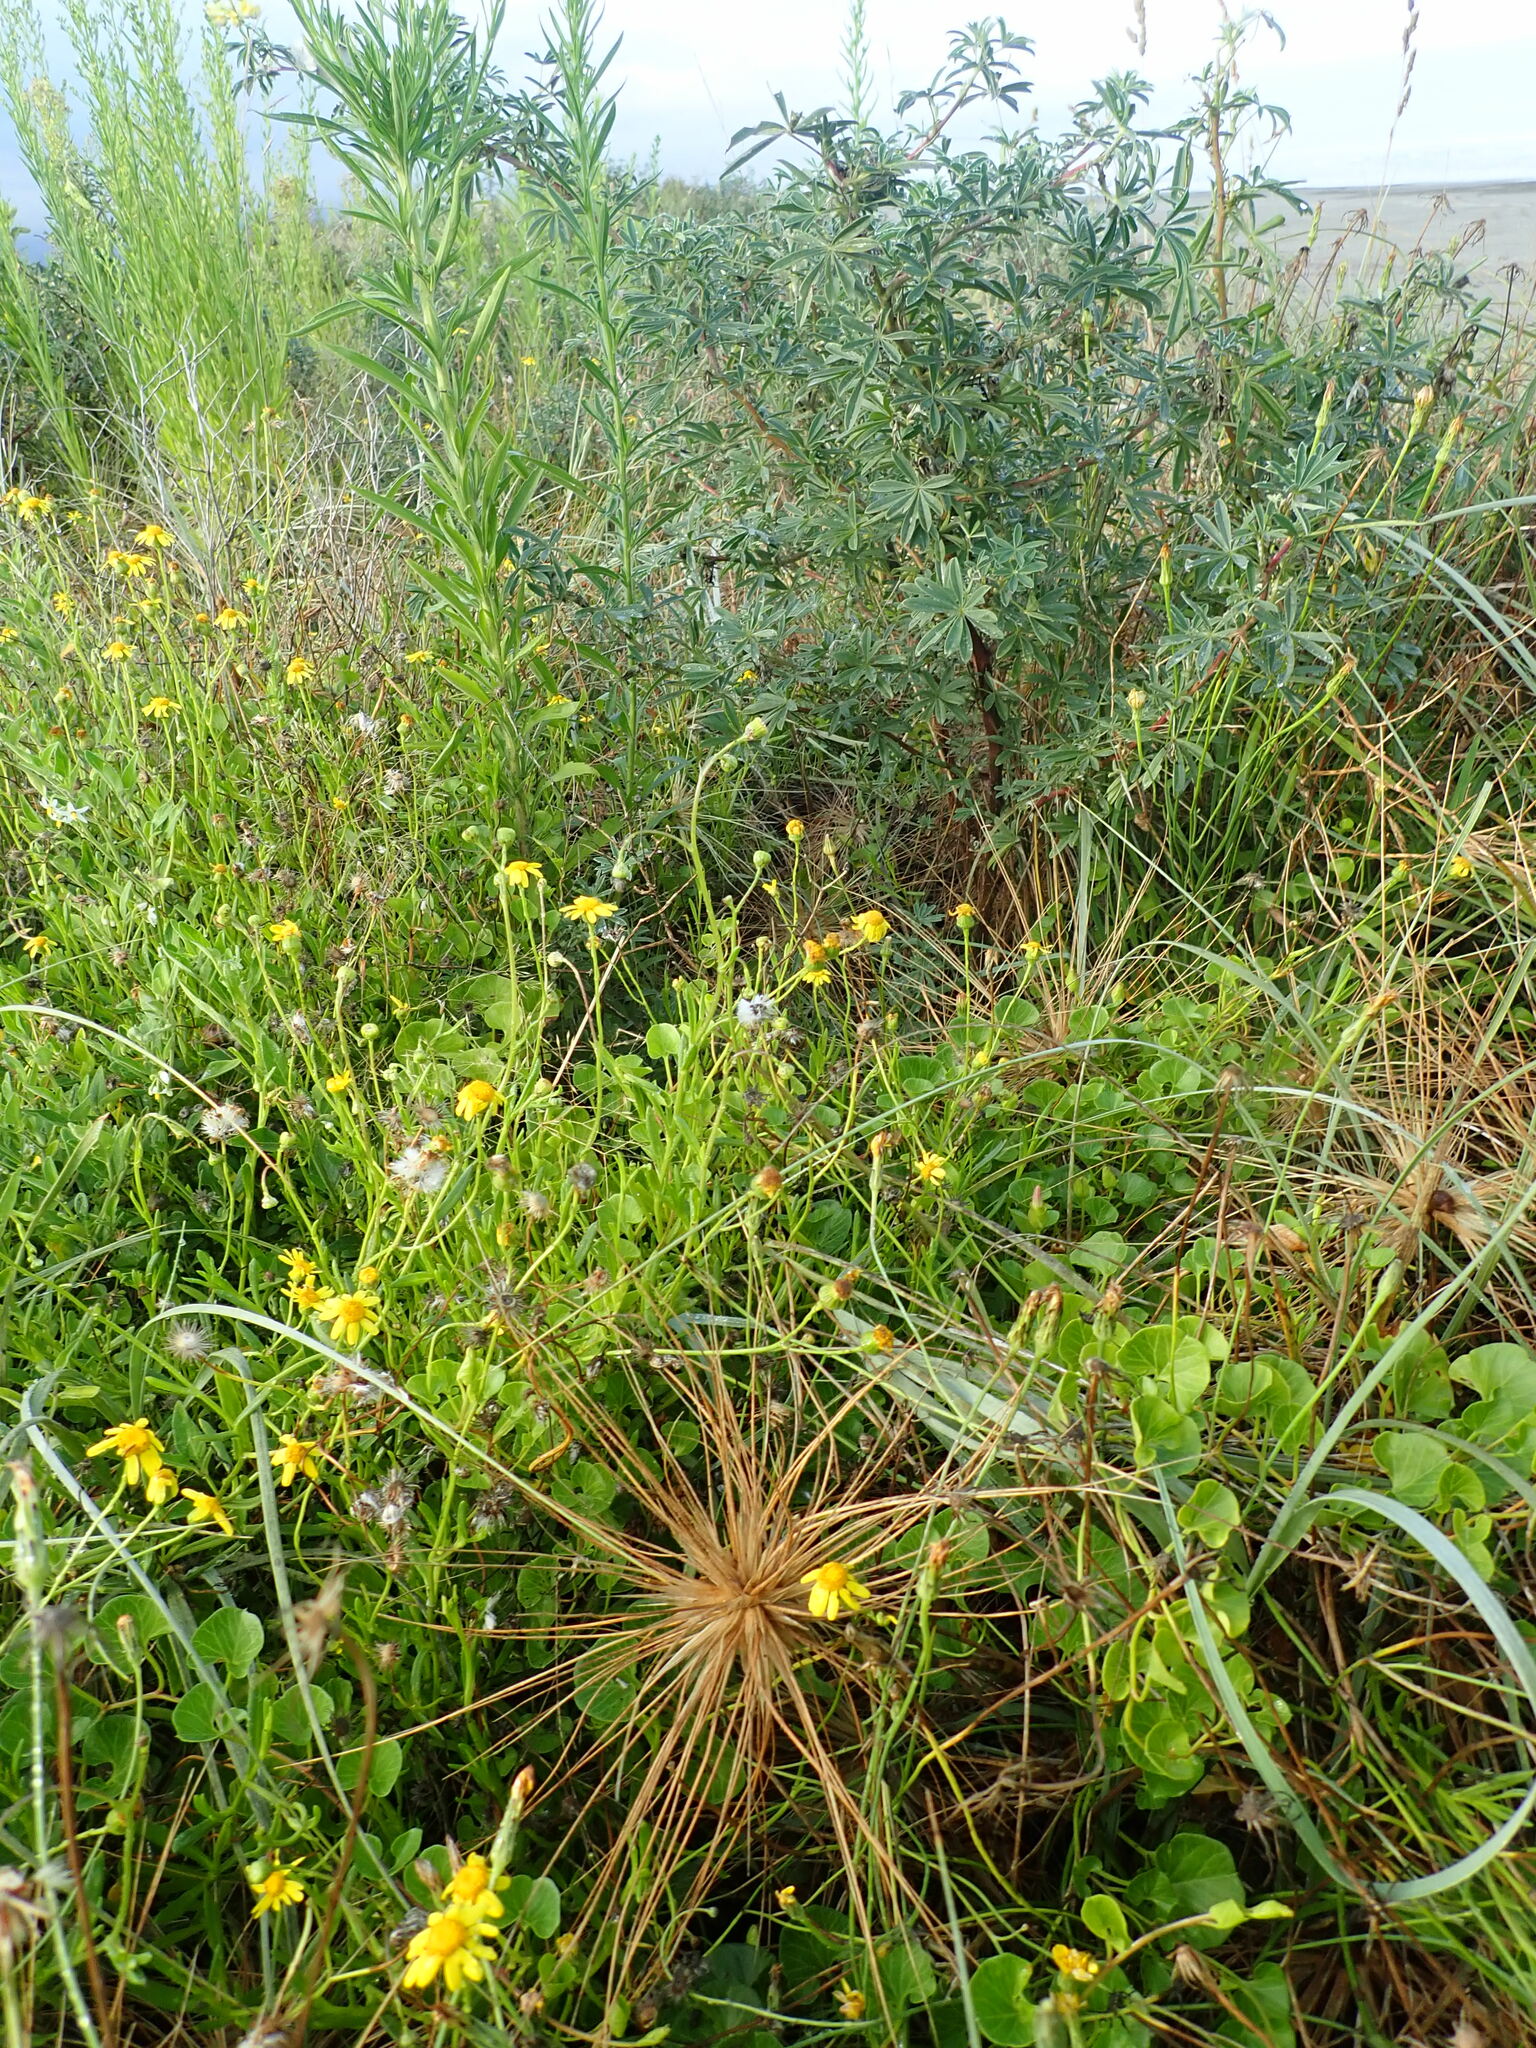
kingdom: Plantae
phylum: Tracheophyta
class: Magnoliopsida
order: Asterales
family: Asteraceae
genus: Senecio
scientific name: Senecio skirrhodon
